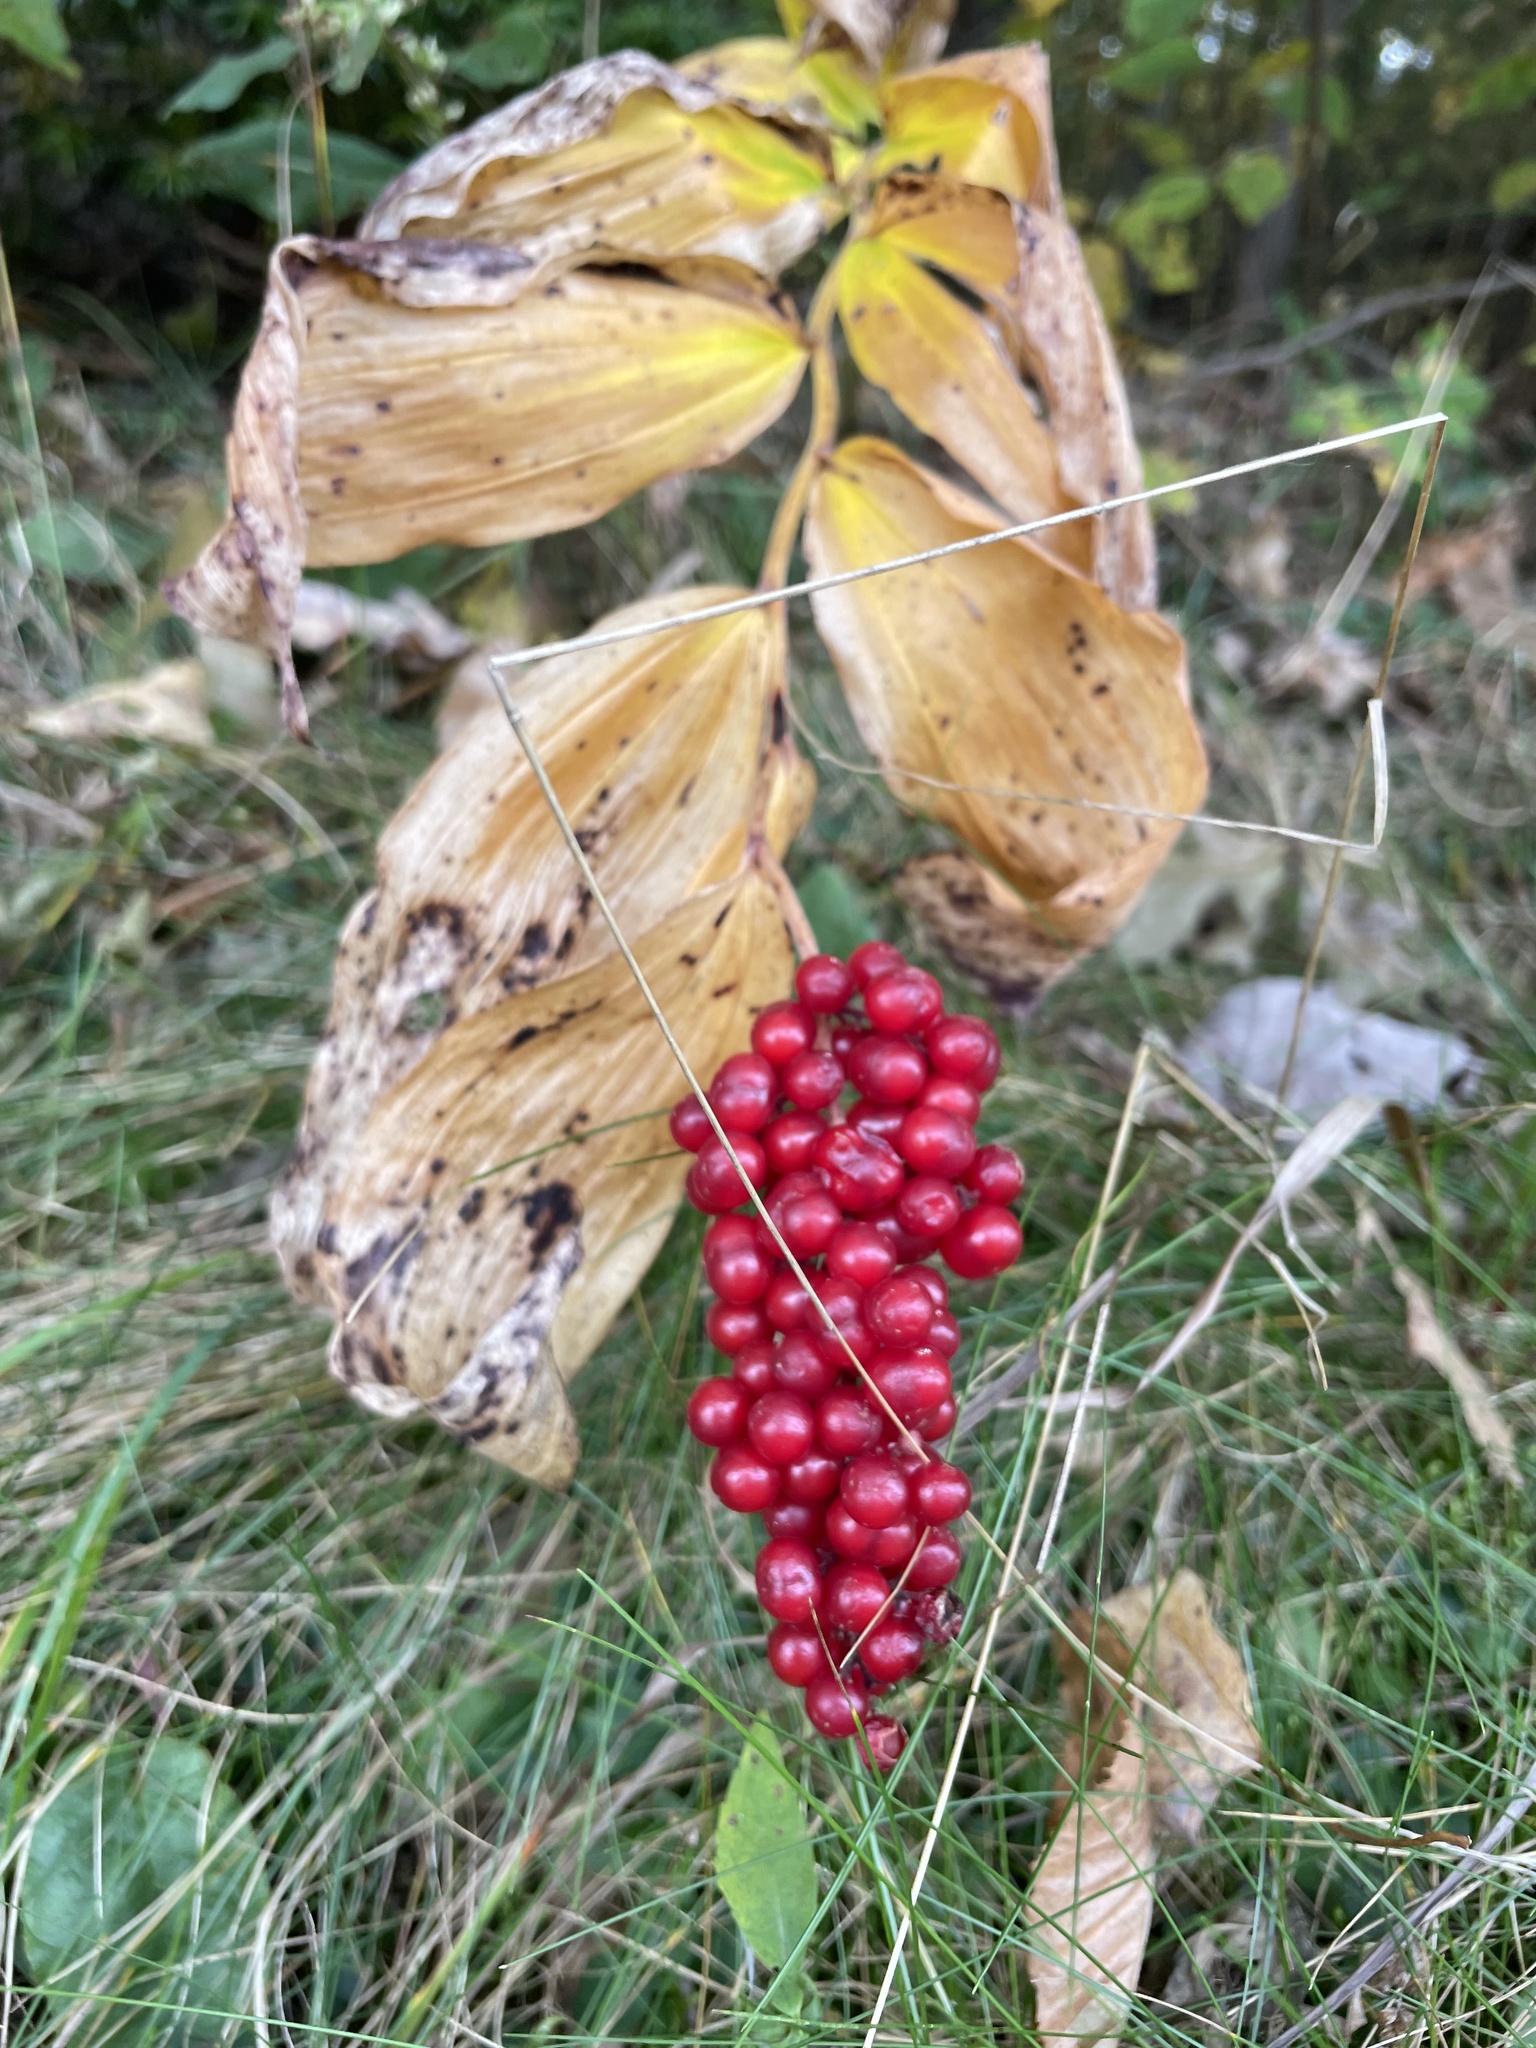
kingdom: Plantae
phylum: Tracheophyta
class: Liliopsida
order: Asparagales
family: Asparagaceae
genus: Maianthemum
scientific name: Maianthemum racemosum
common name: False spikenard
